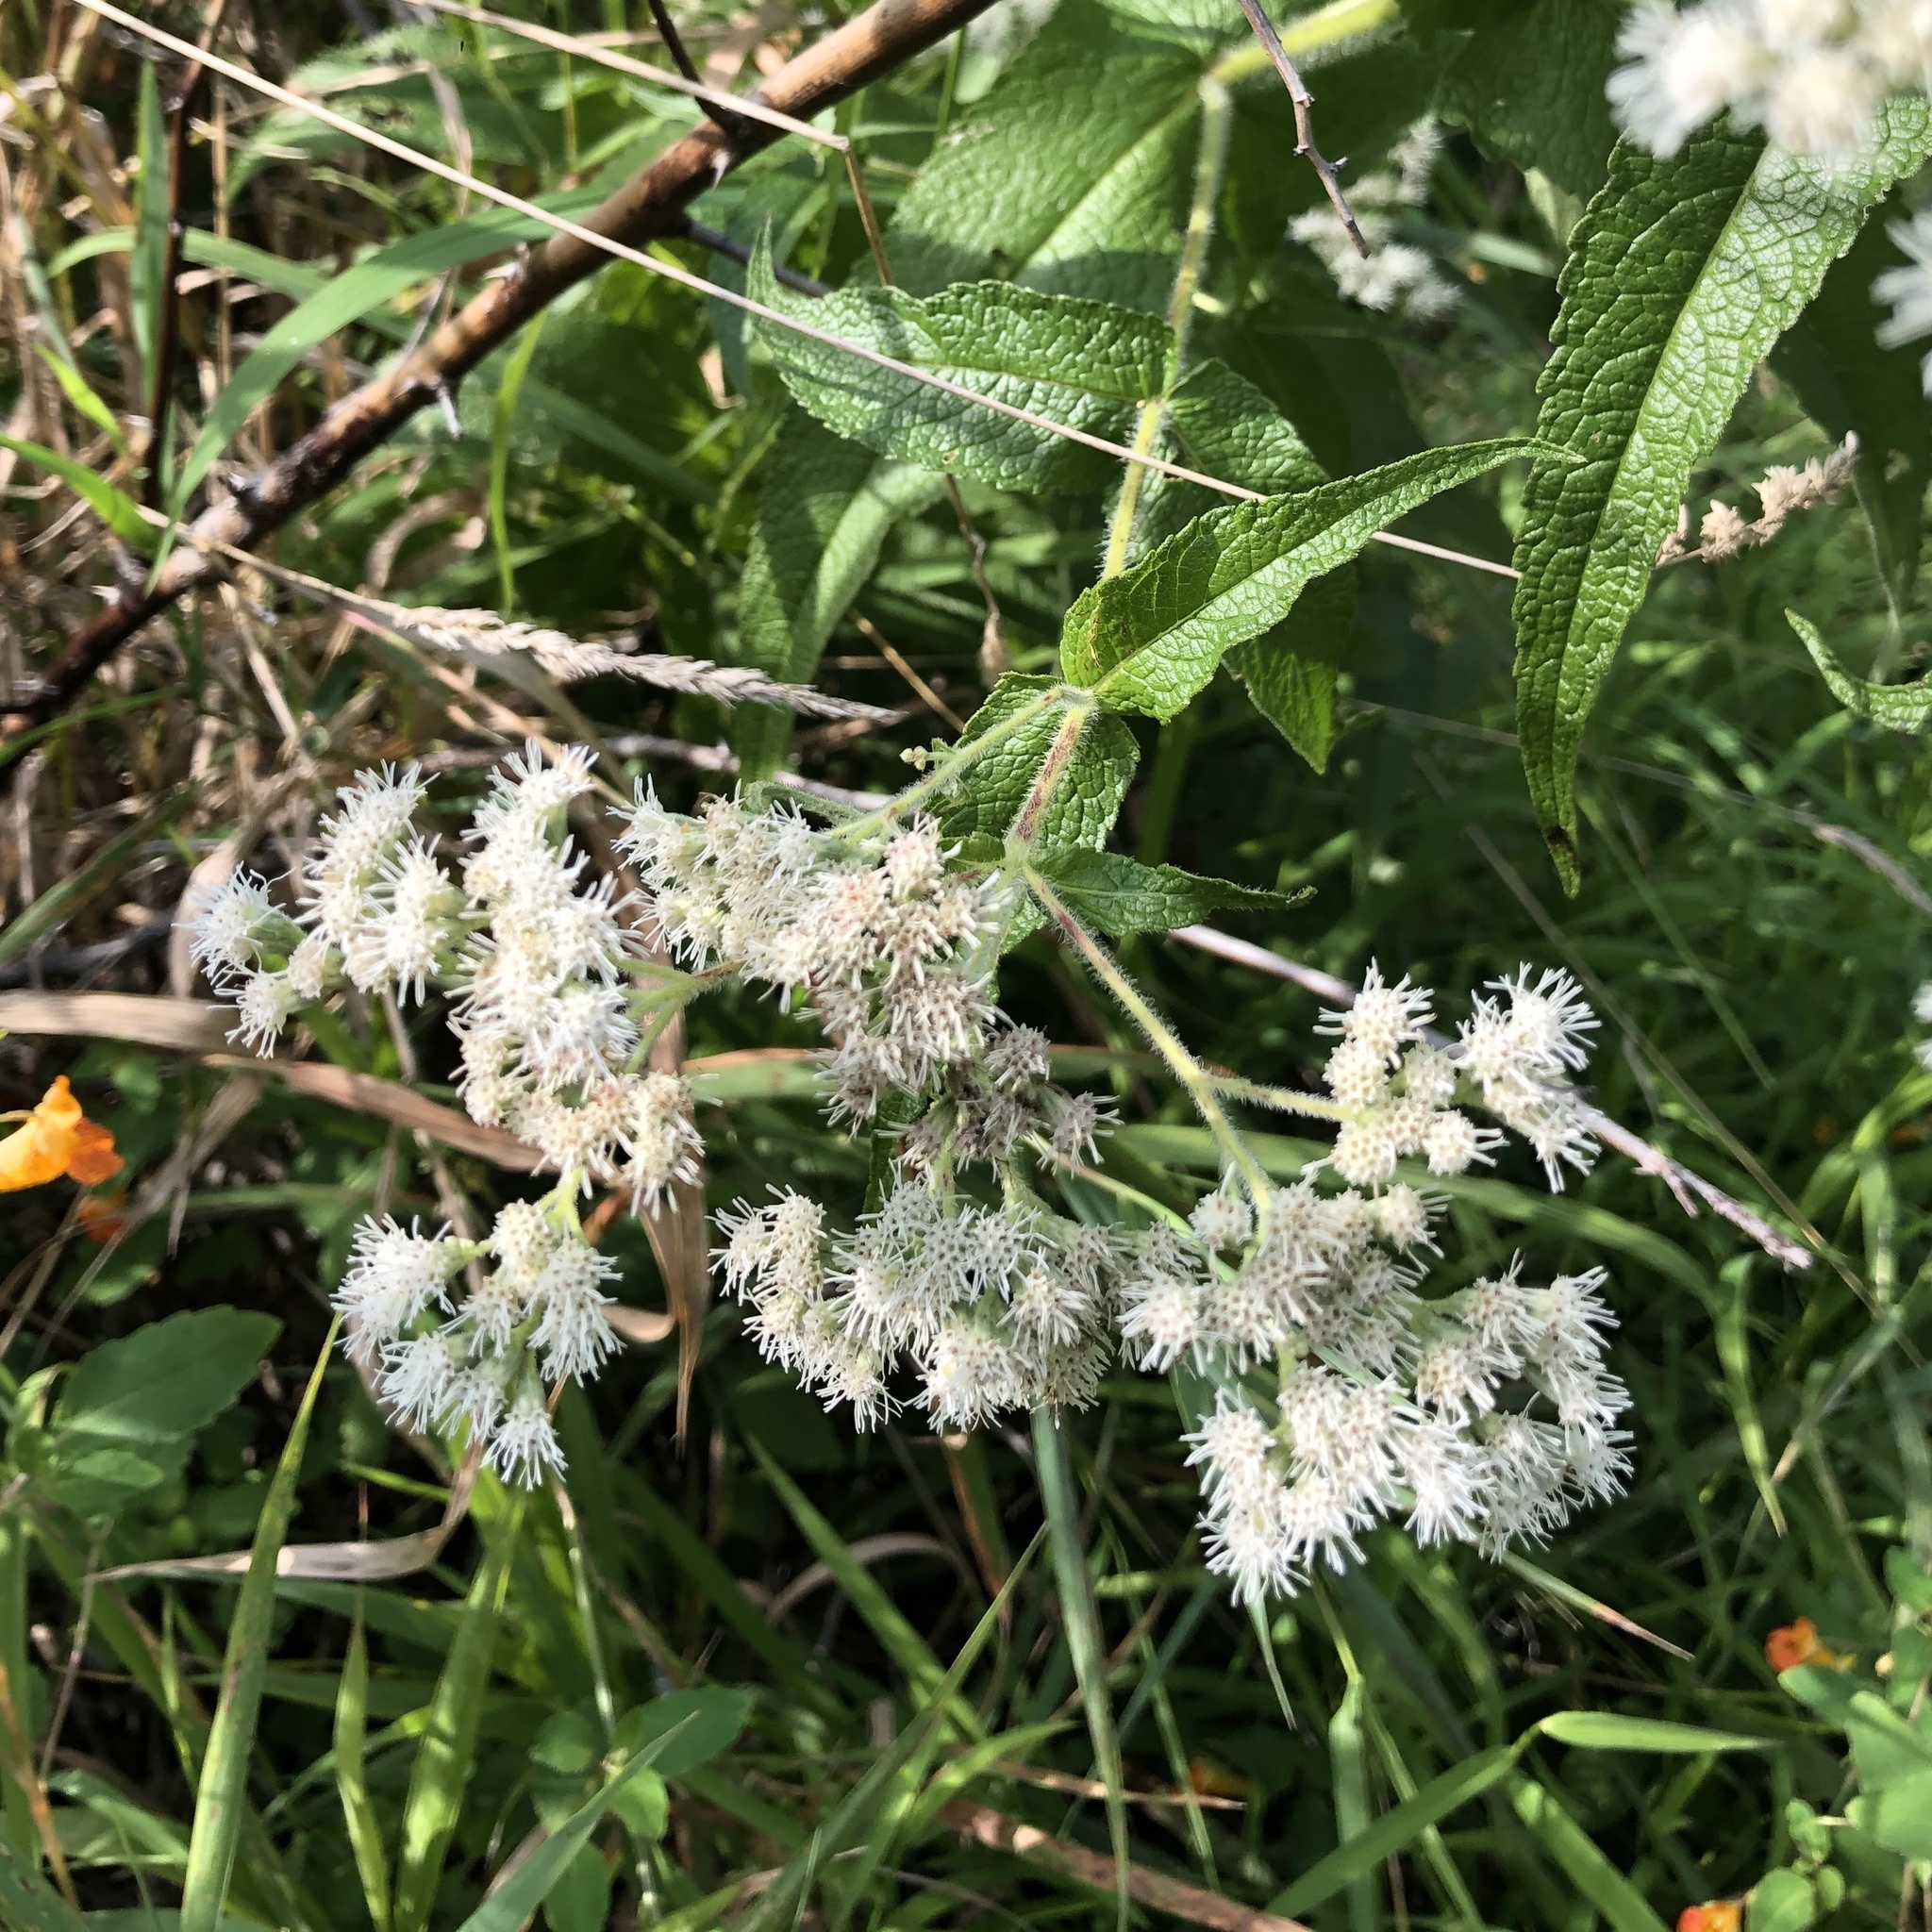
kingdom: Plantae
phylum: Tracheophyta
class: Magnoliopsida
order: Asterales
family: Asteraceae
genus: Eupatorium
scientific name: Eupatorium perfoliatum
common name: Boneset
